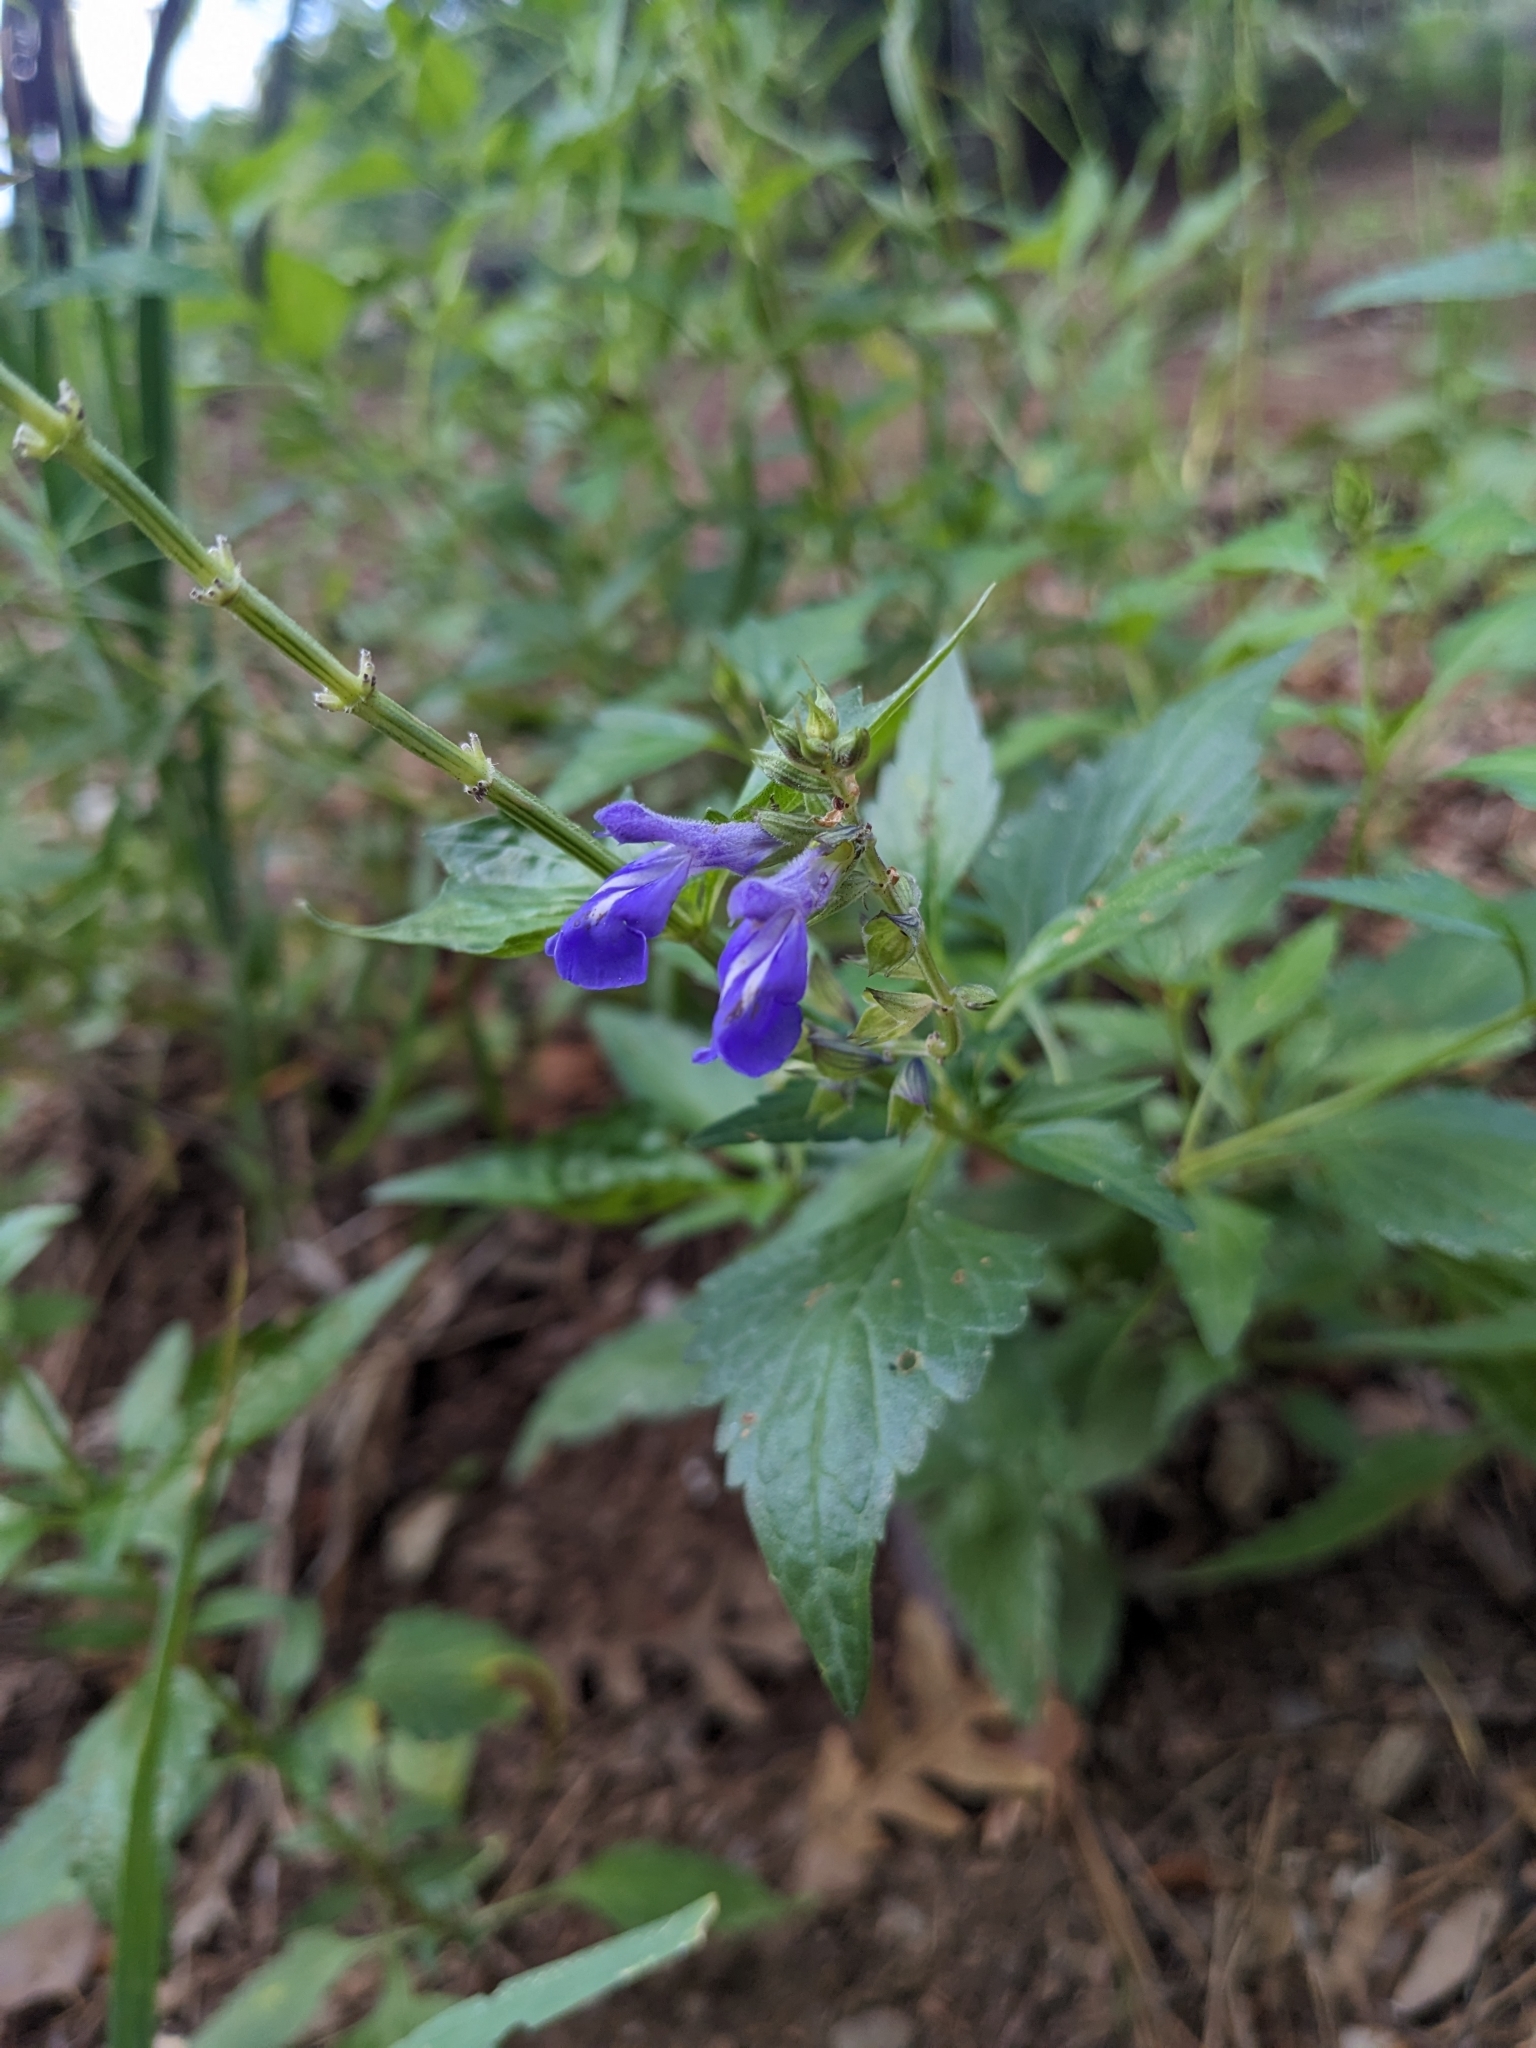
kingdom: Plantae
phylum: Tracheophyta
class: Magnoliopsida
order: Lamiales
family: Lamiaceae
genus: Salvia
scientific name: Salvia arizonica
